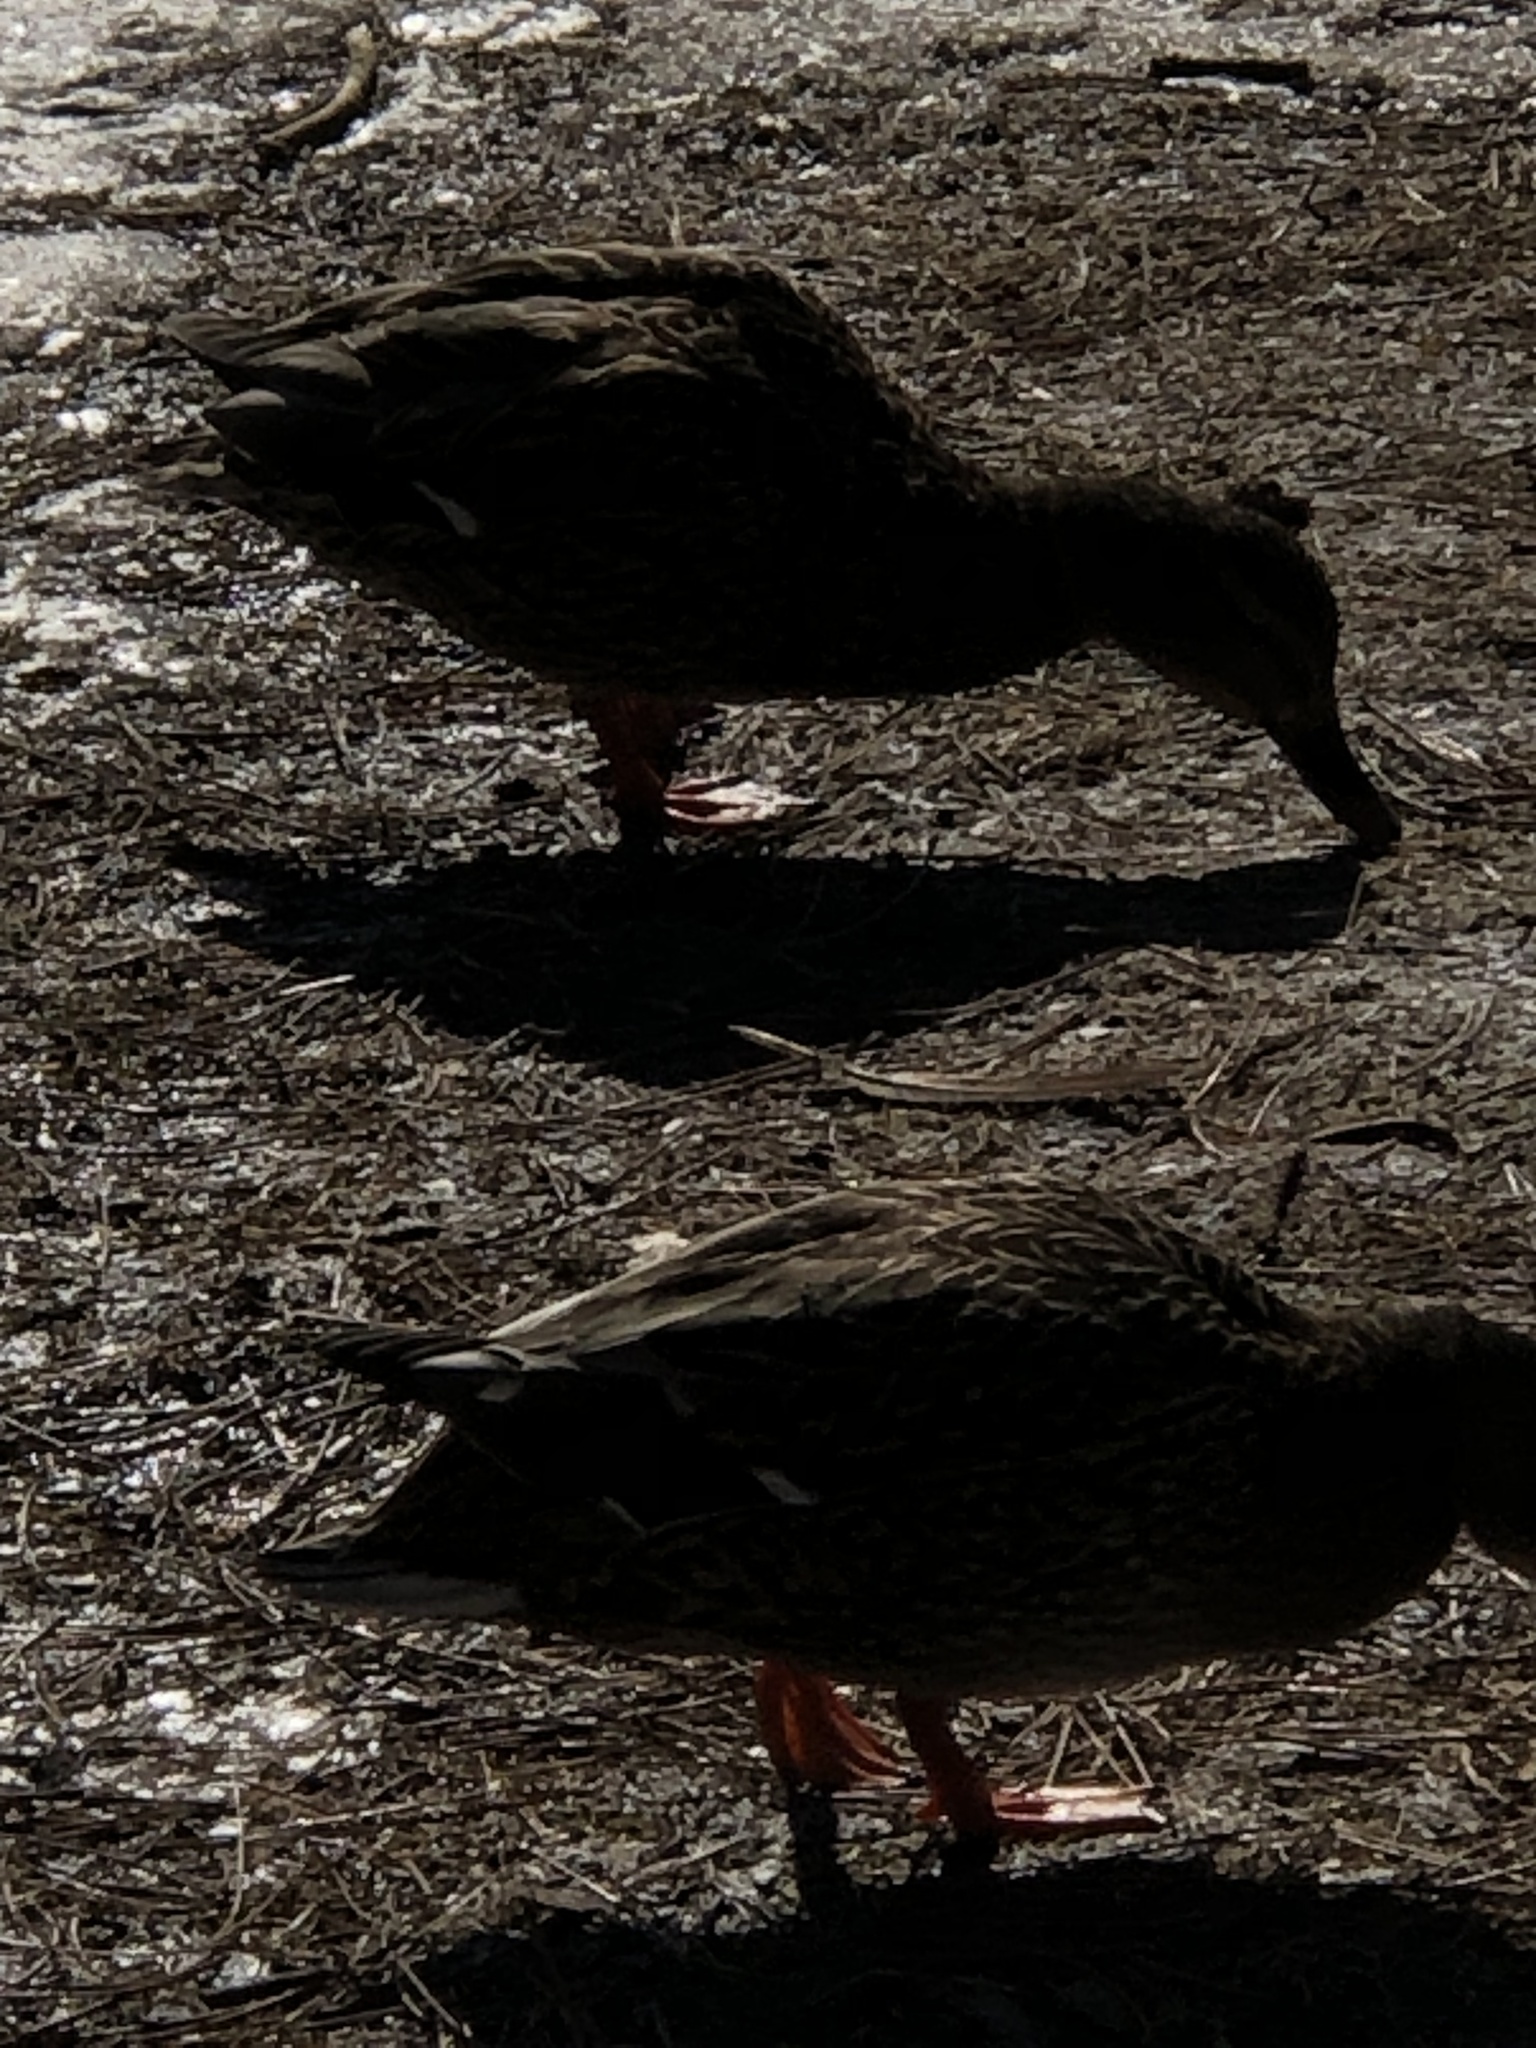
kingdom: Animalia
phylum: Chordata
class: Aves
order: Anseriformes
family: Anatidae
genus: Anas
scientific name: Anas platyrhynchos
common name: Mallard
